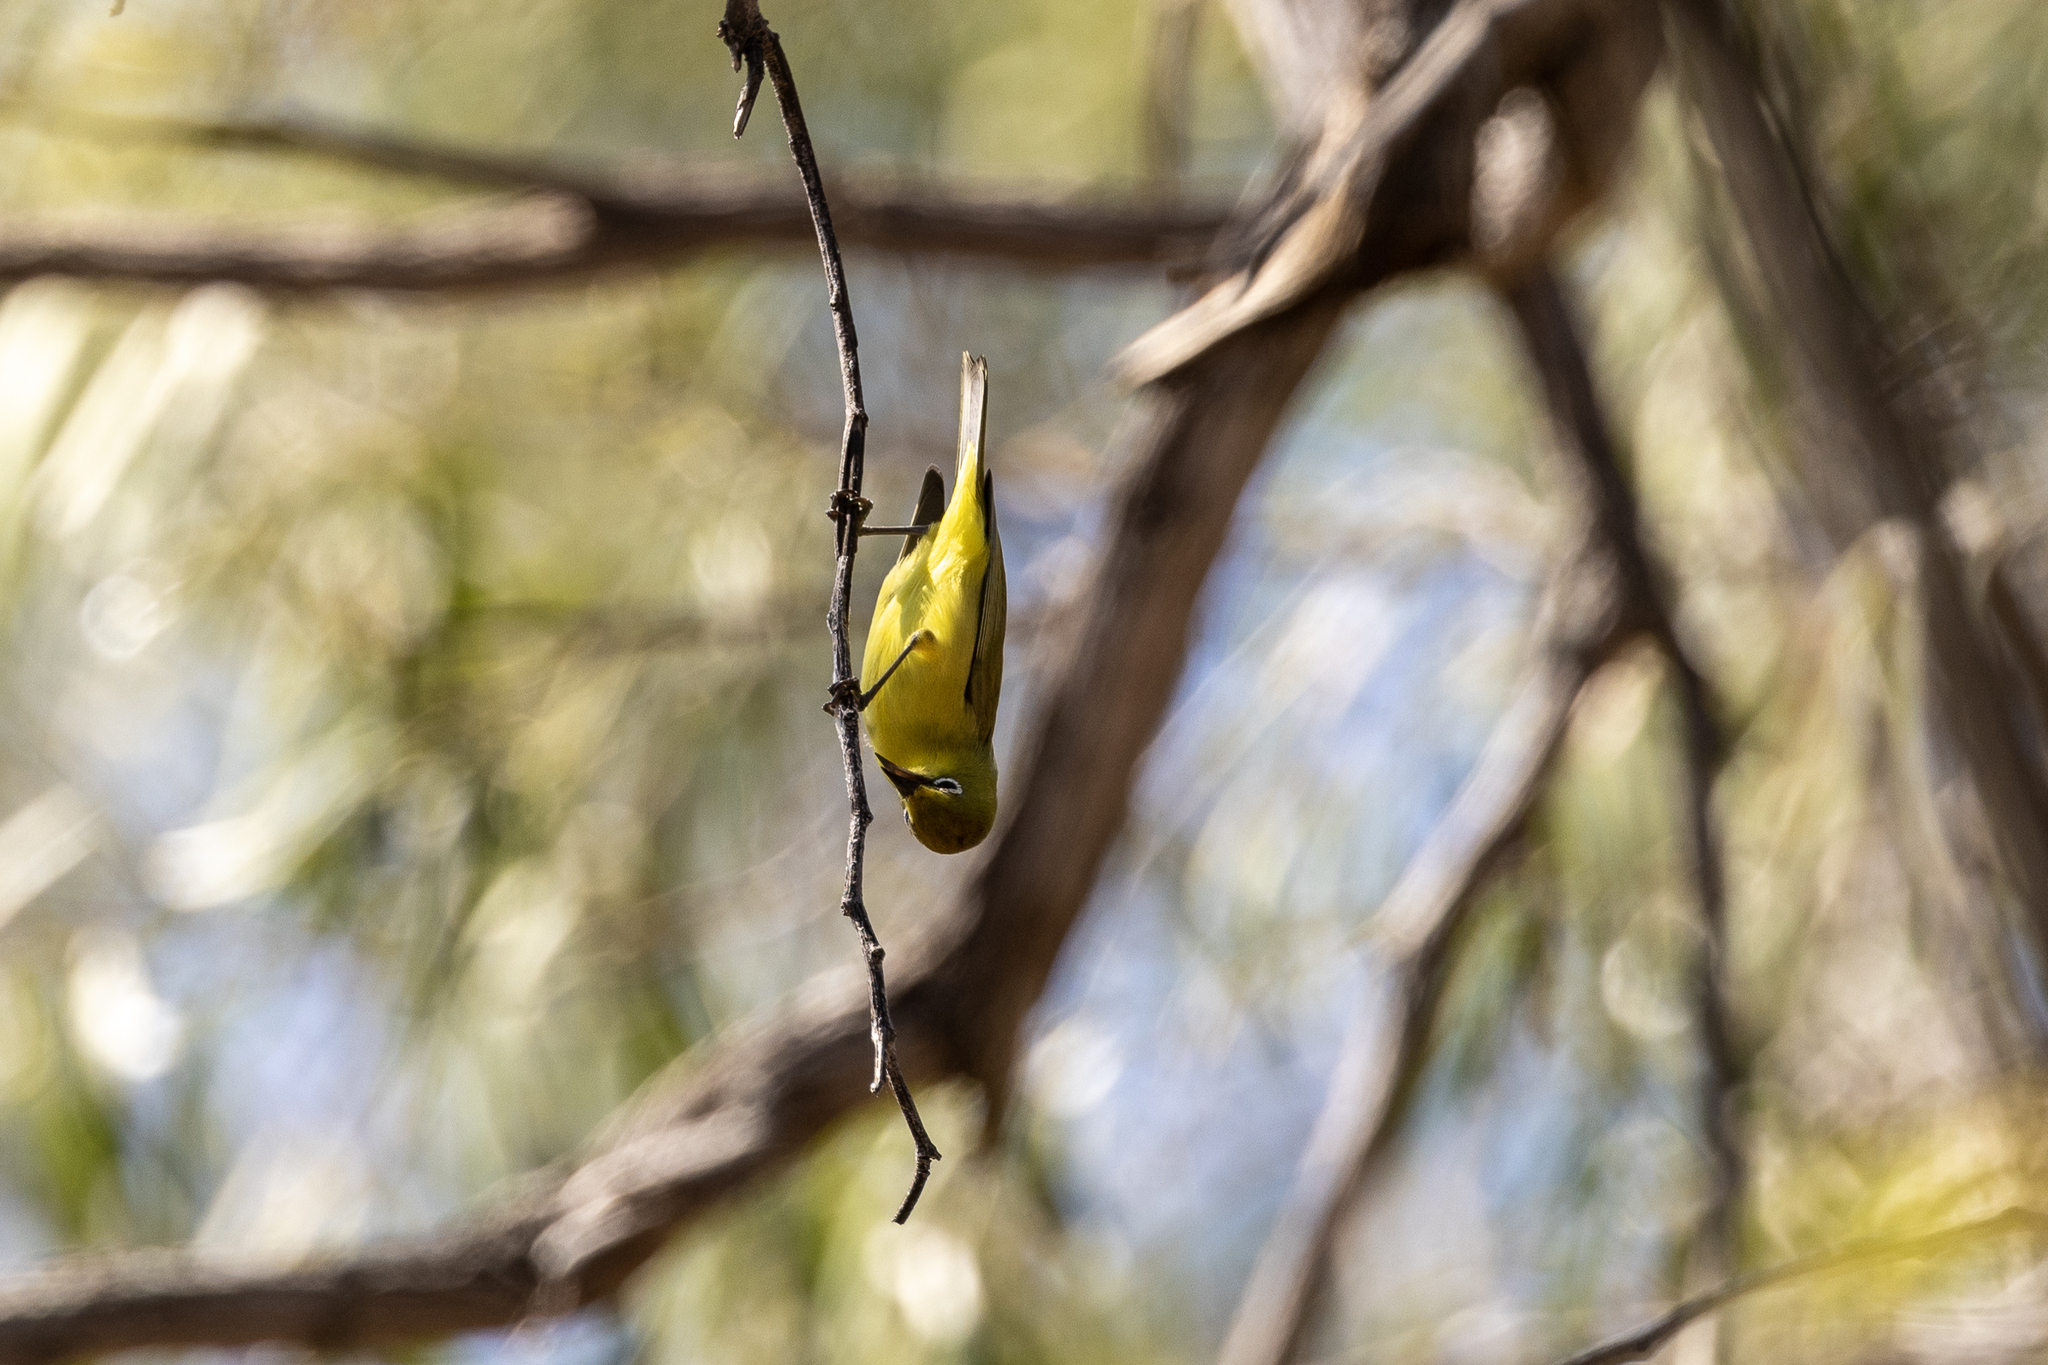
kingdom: Animalia
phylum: Chordata
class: Aves
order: Passeriformes
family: Zosteropidae
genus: Zosterops
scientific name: Zosterops luteus
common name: Canary white-eye
